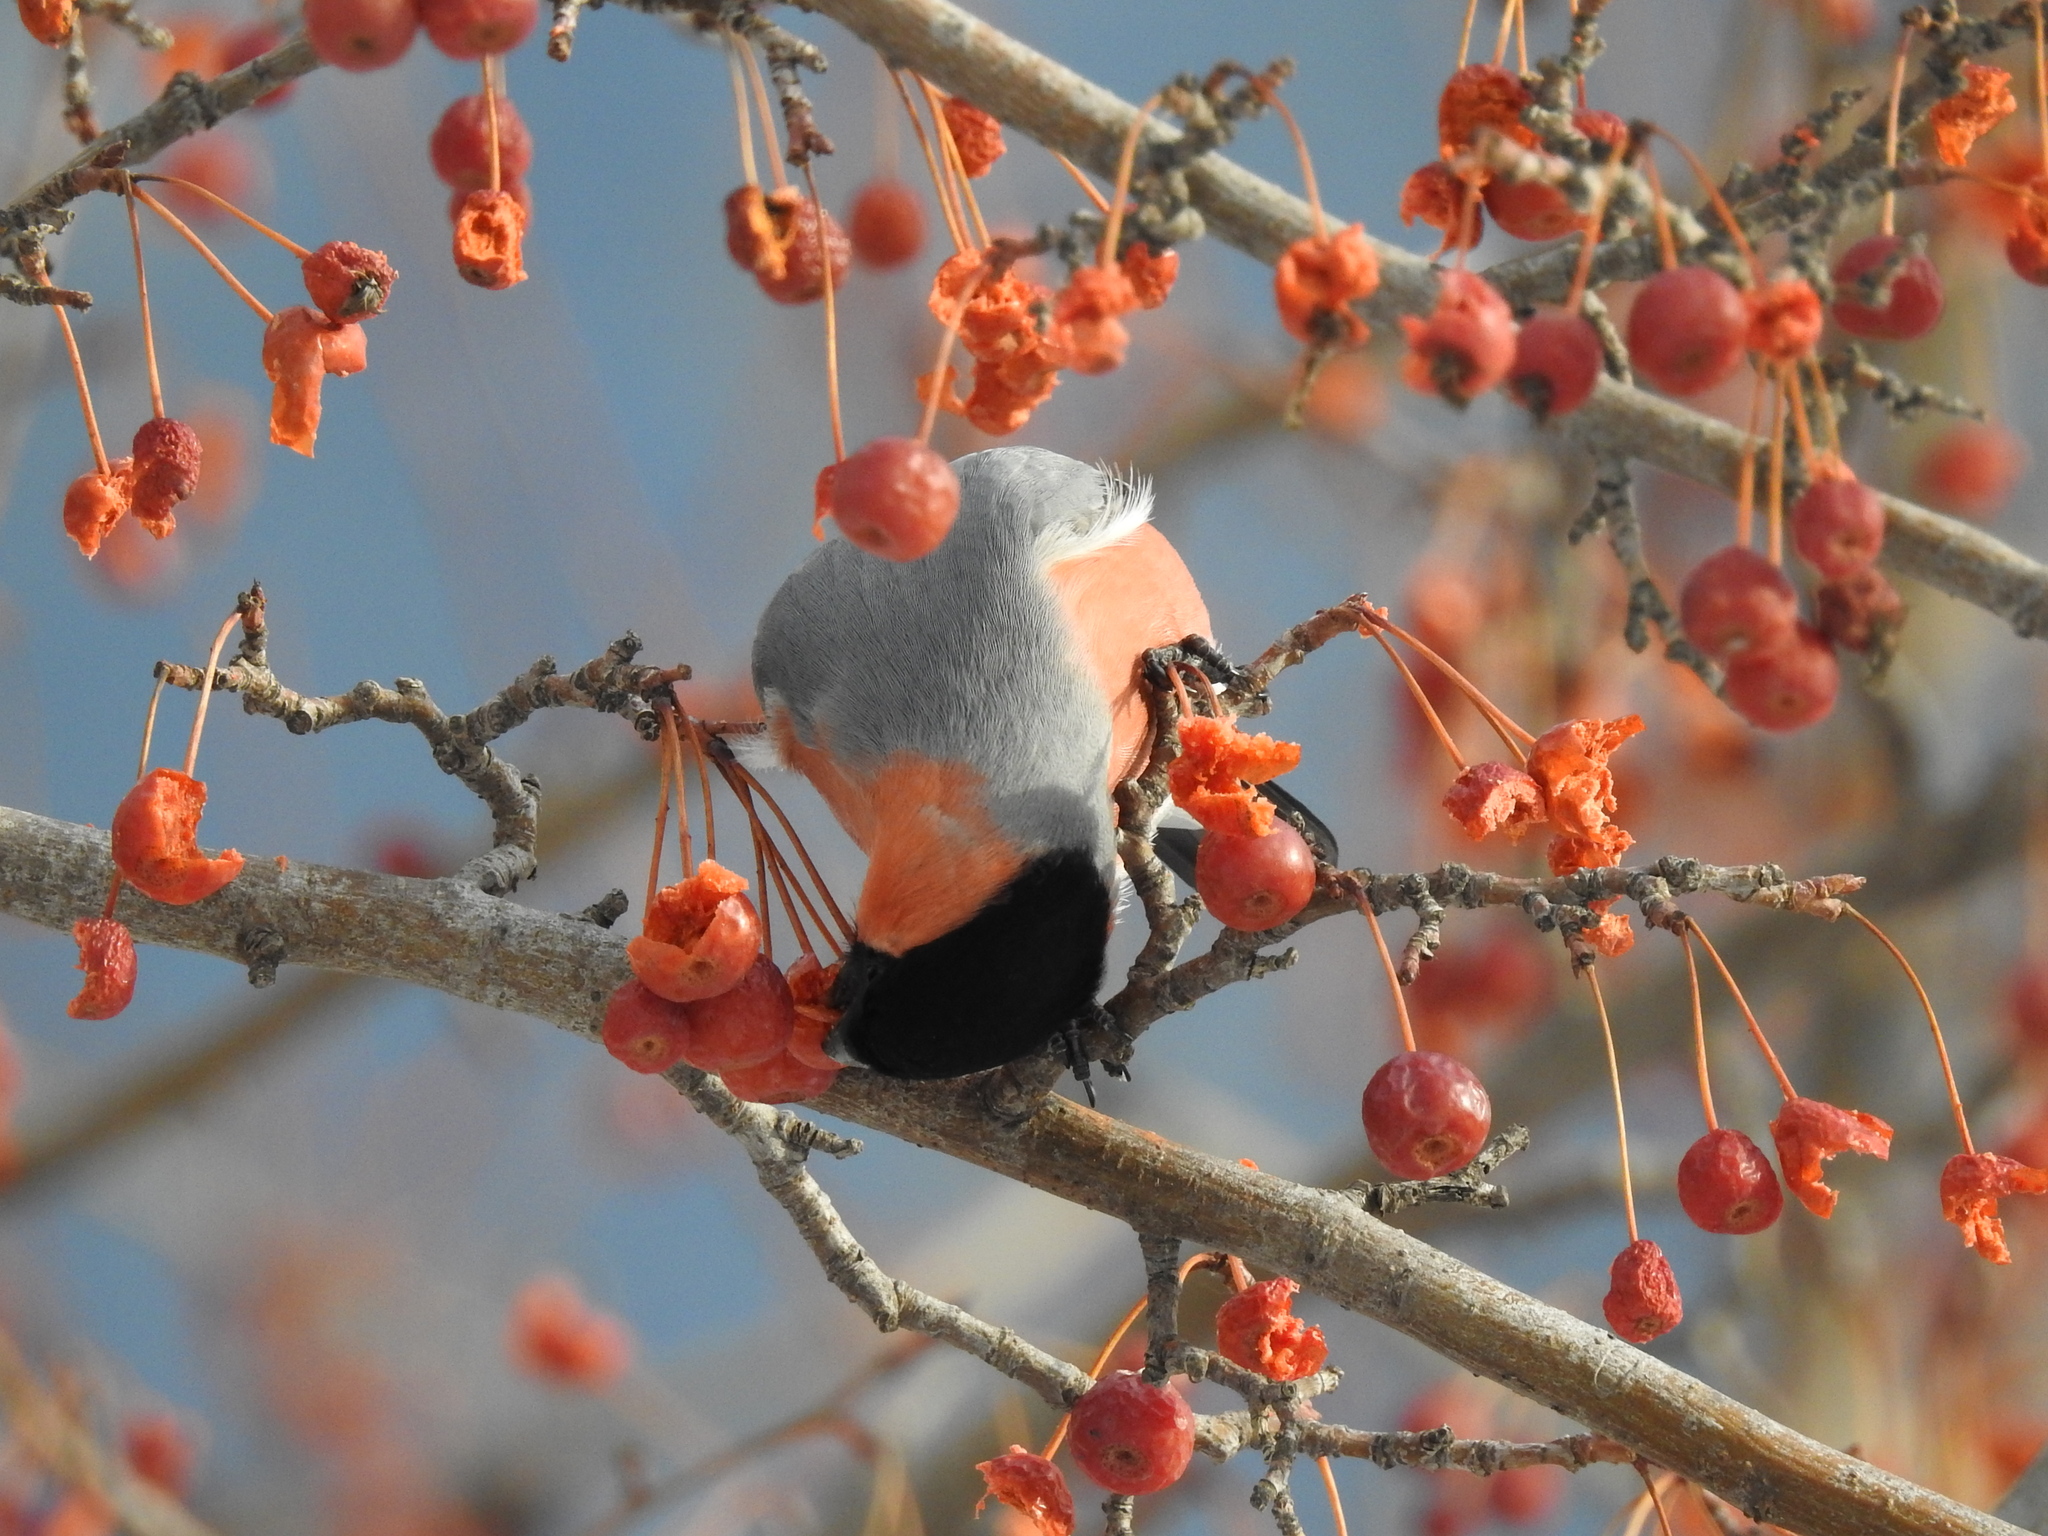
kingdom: Animalia
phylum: Chordata
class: Aves
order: Passeriformes
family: Fringillidae
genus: Pyrrhula
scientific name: Pyrrhula pyrrhula
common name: Eurasian bullfinch
